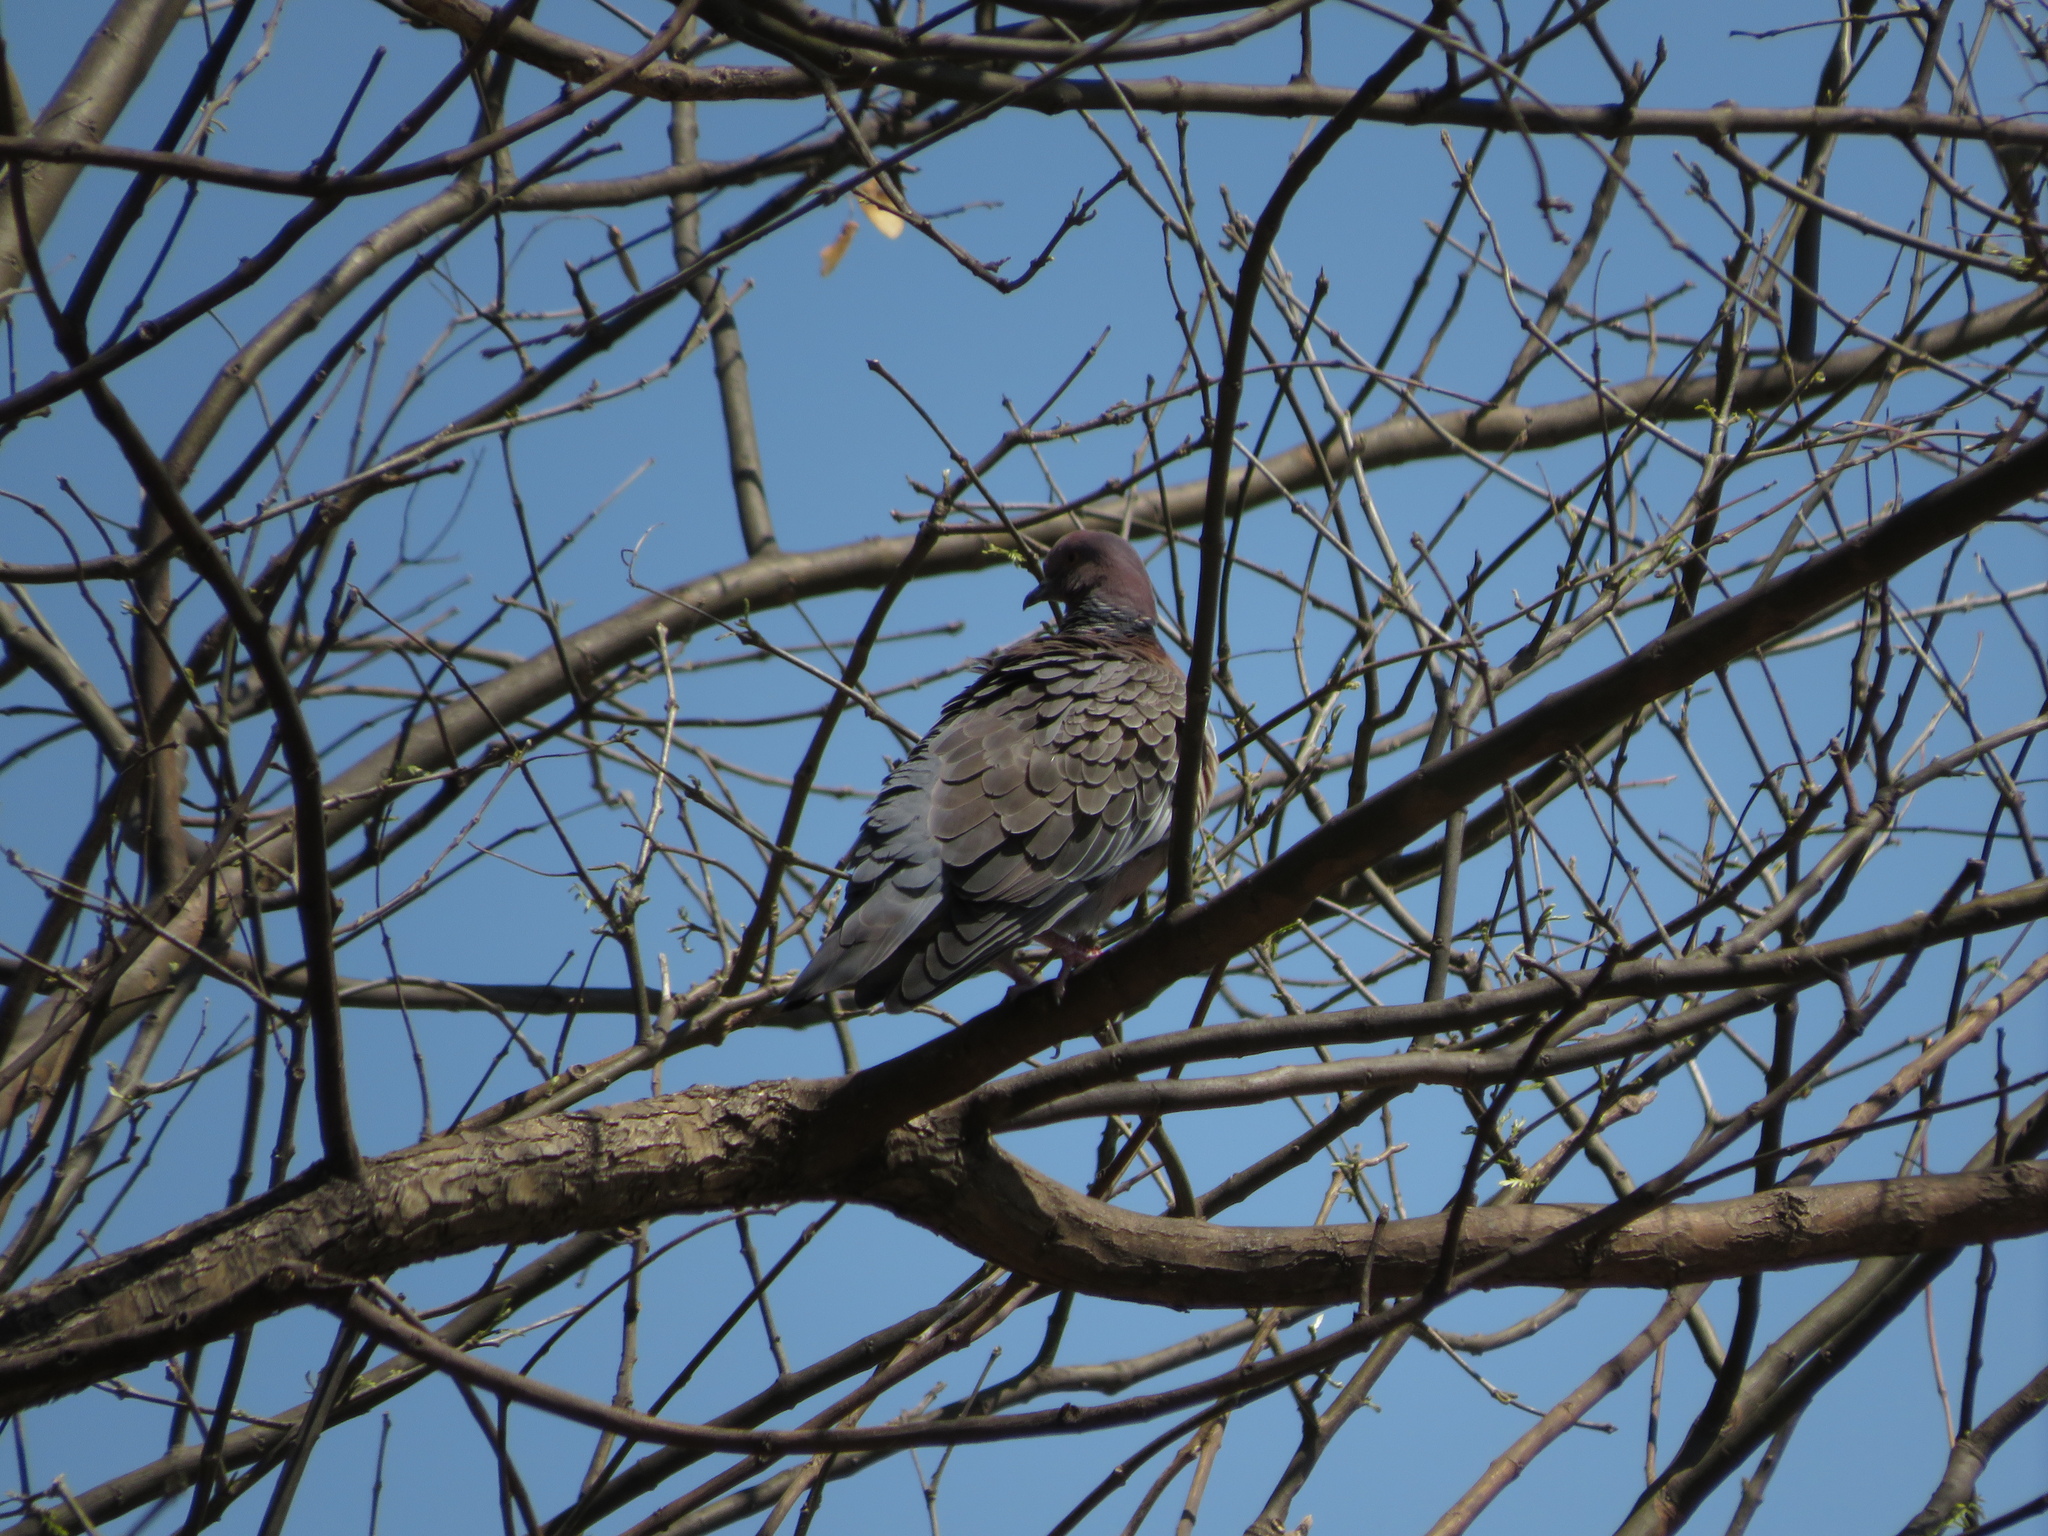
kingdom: Animalia
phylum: Chordata
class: Aves
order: Columbiformes
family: Columbidae
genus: Patagioenas
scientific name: Patagioenas picazuro
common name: Picazuro pigeon
